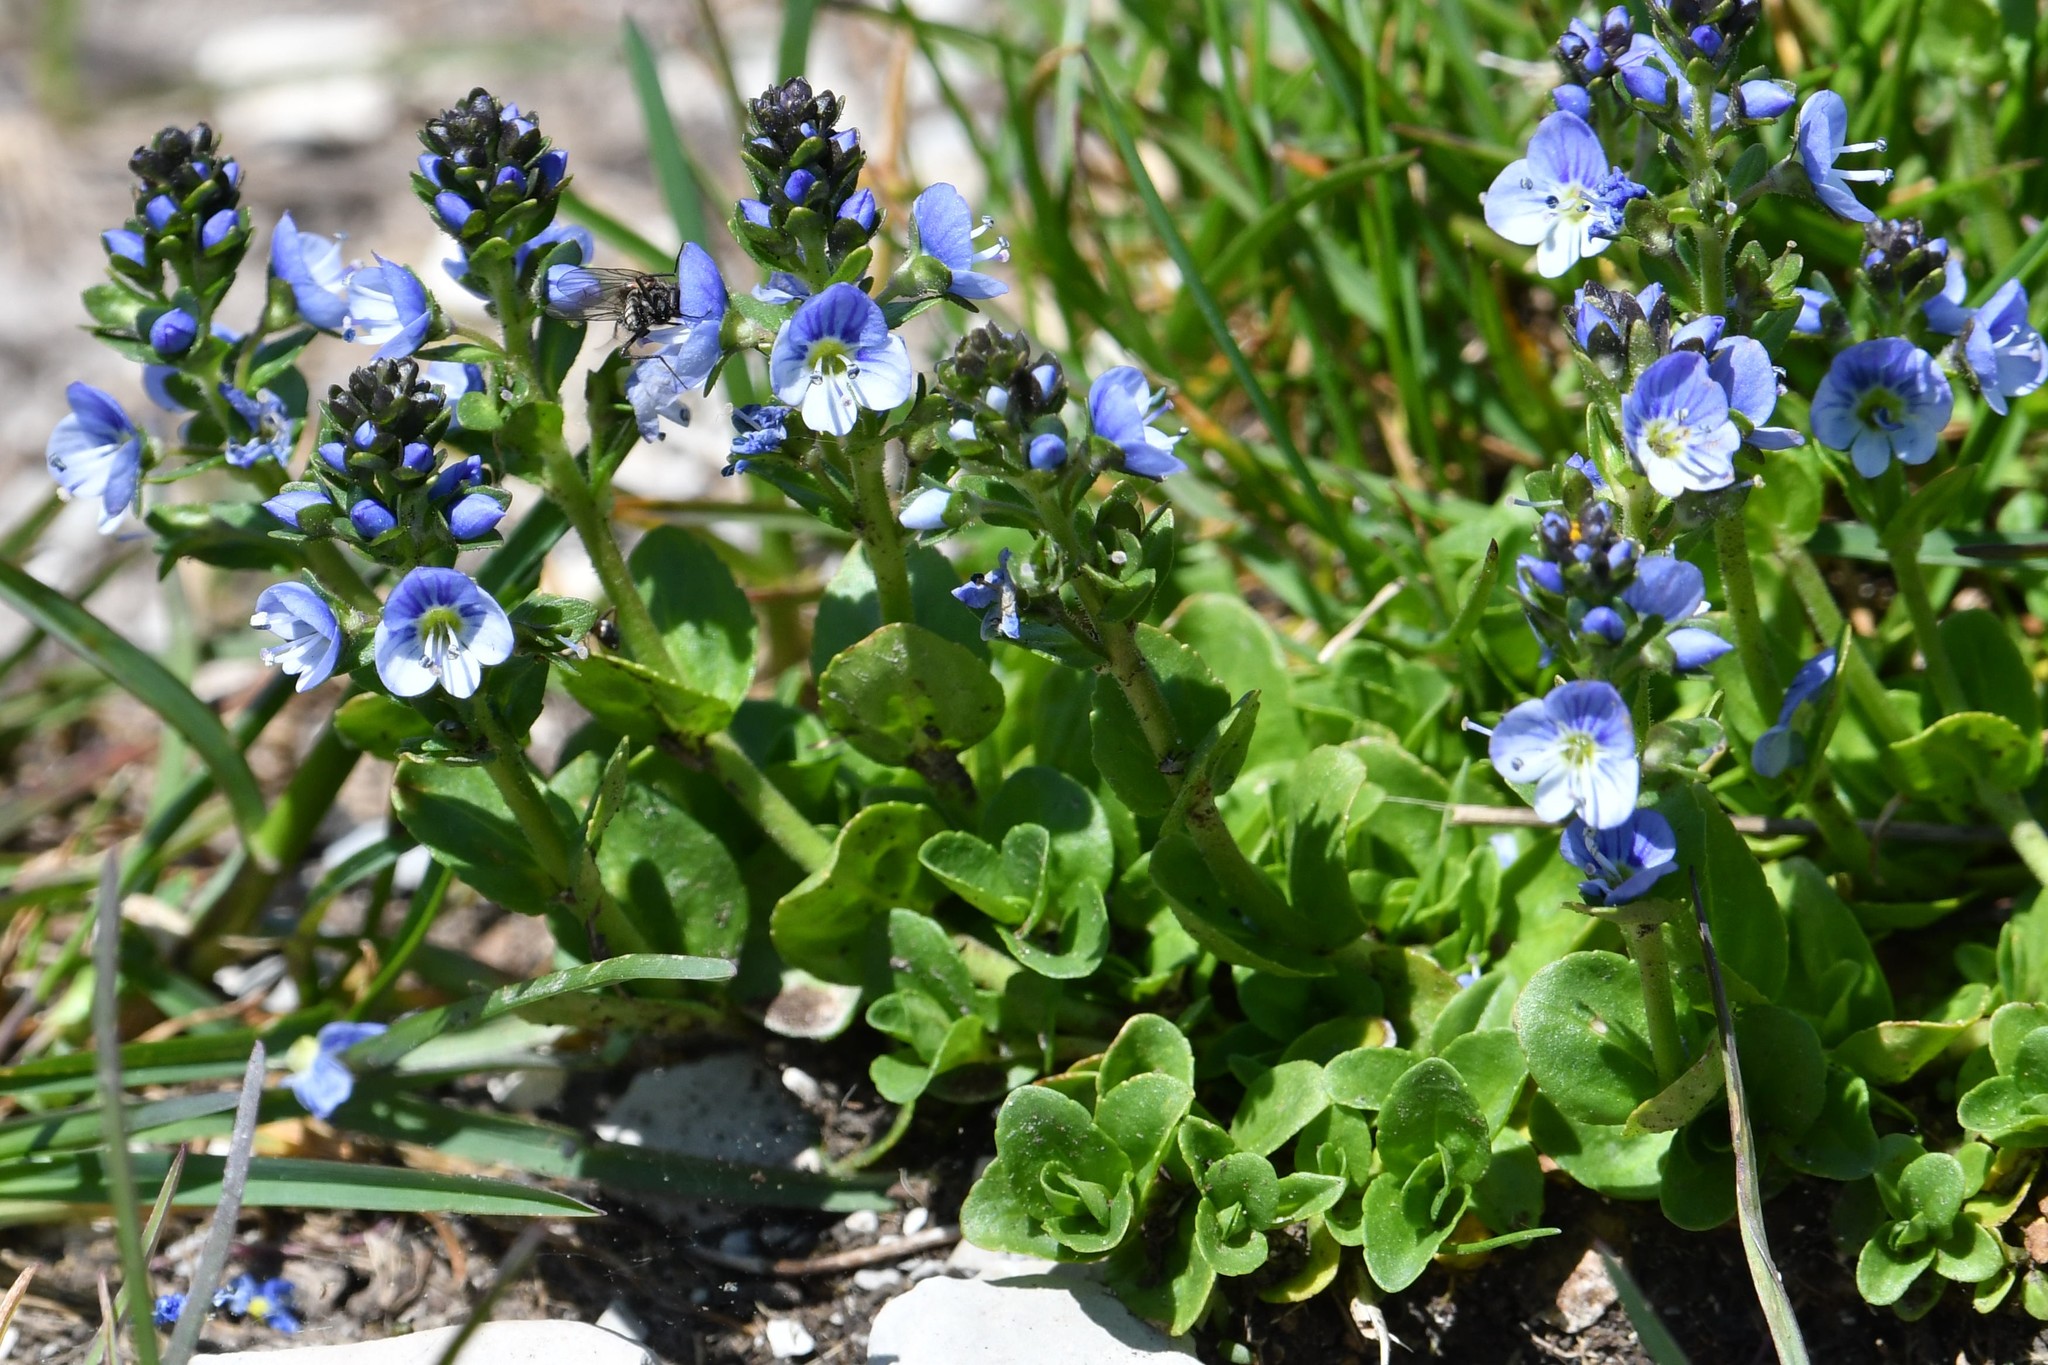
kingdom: Plantae
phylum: Tracheophyta
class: Magnoliopsida
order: Lamiales
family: Plantaginaceae
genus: Veronica
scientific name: Veronica serpyllifolia
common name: Thyme-leaved speedwell
